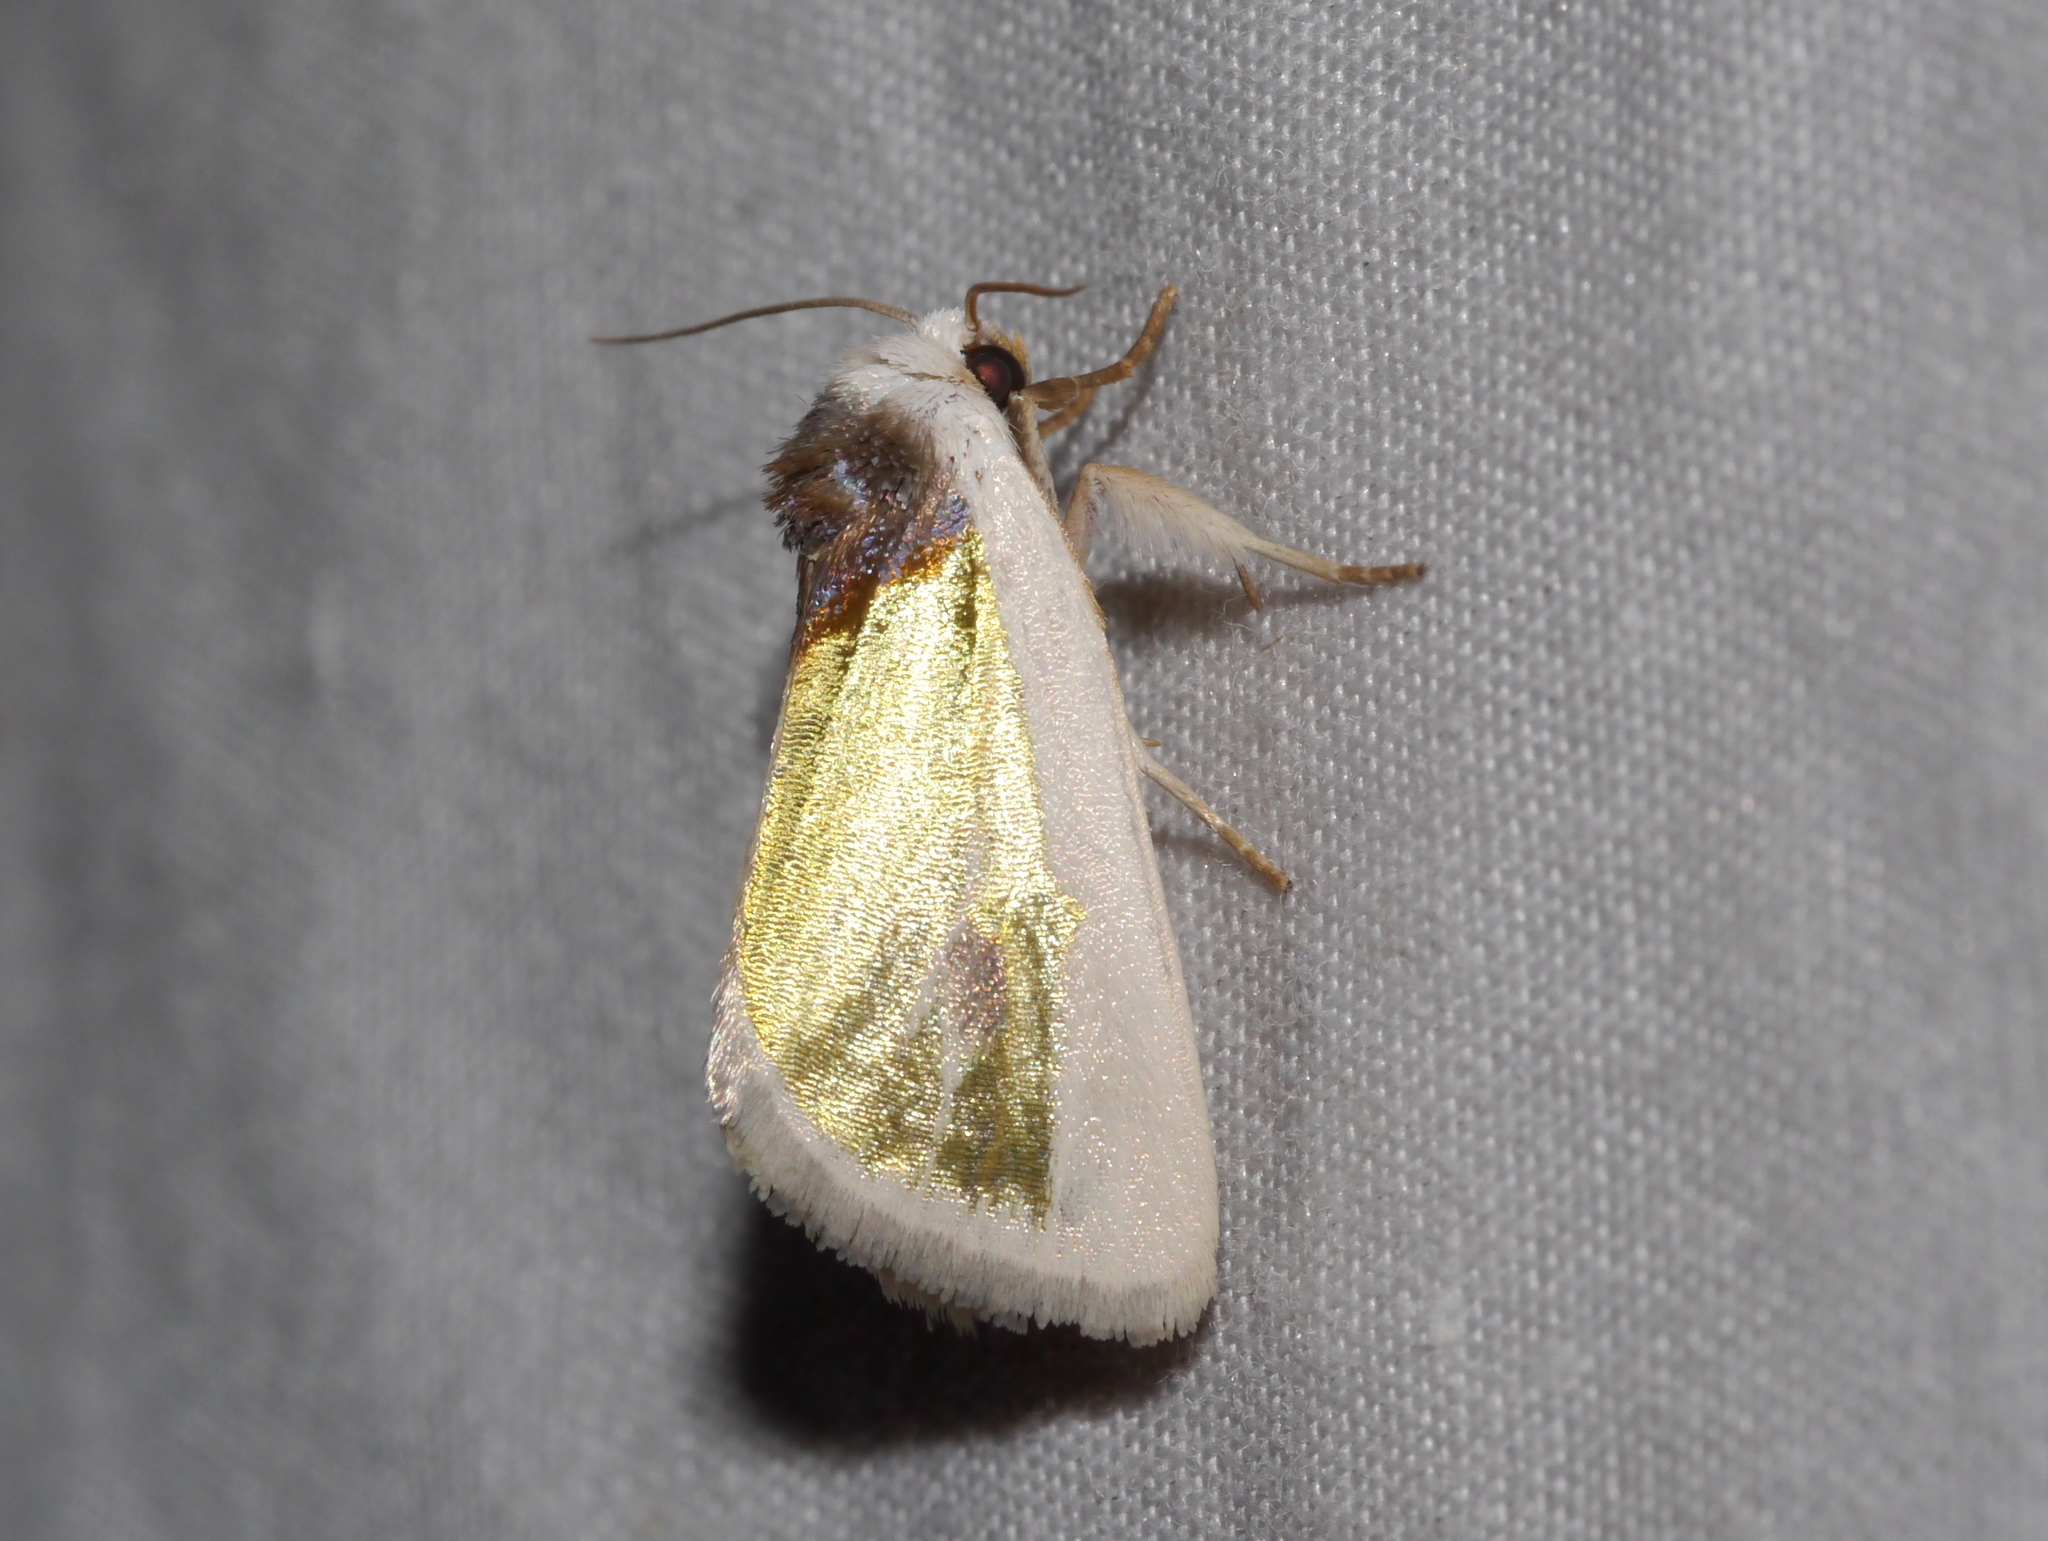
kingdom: Animalia
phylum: Arthropoda
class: Insecta
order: Lepidoptera
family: Noctuidae
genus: Neumoegenia
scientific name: Neumoegenia poetica
